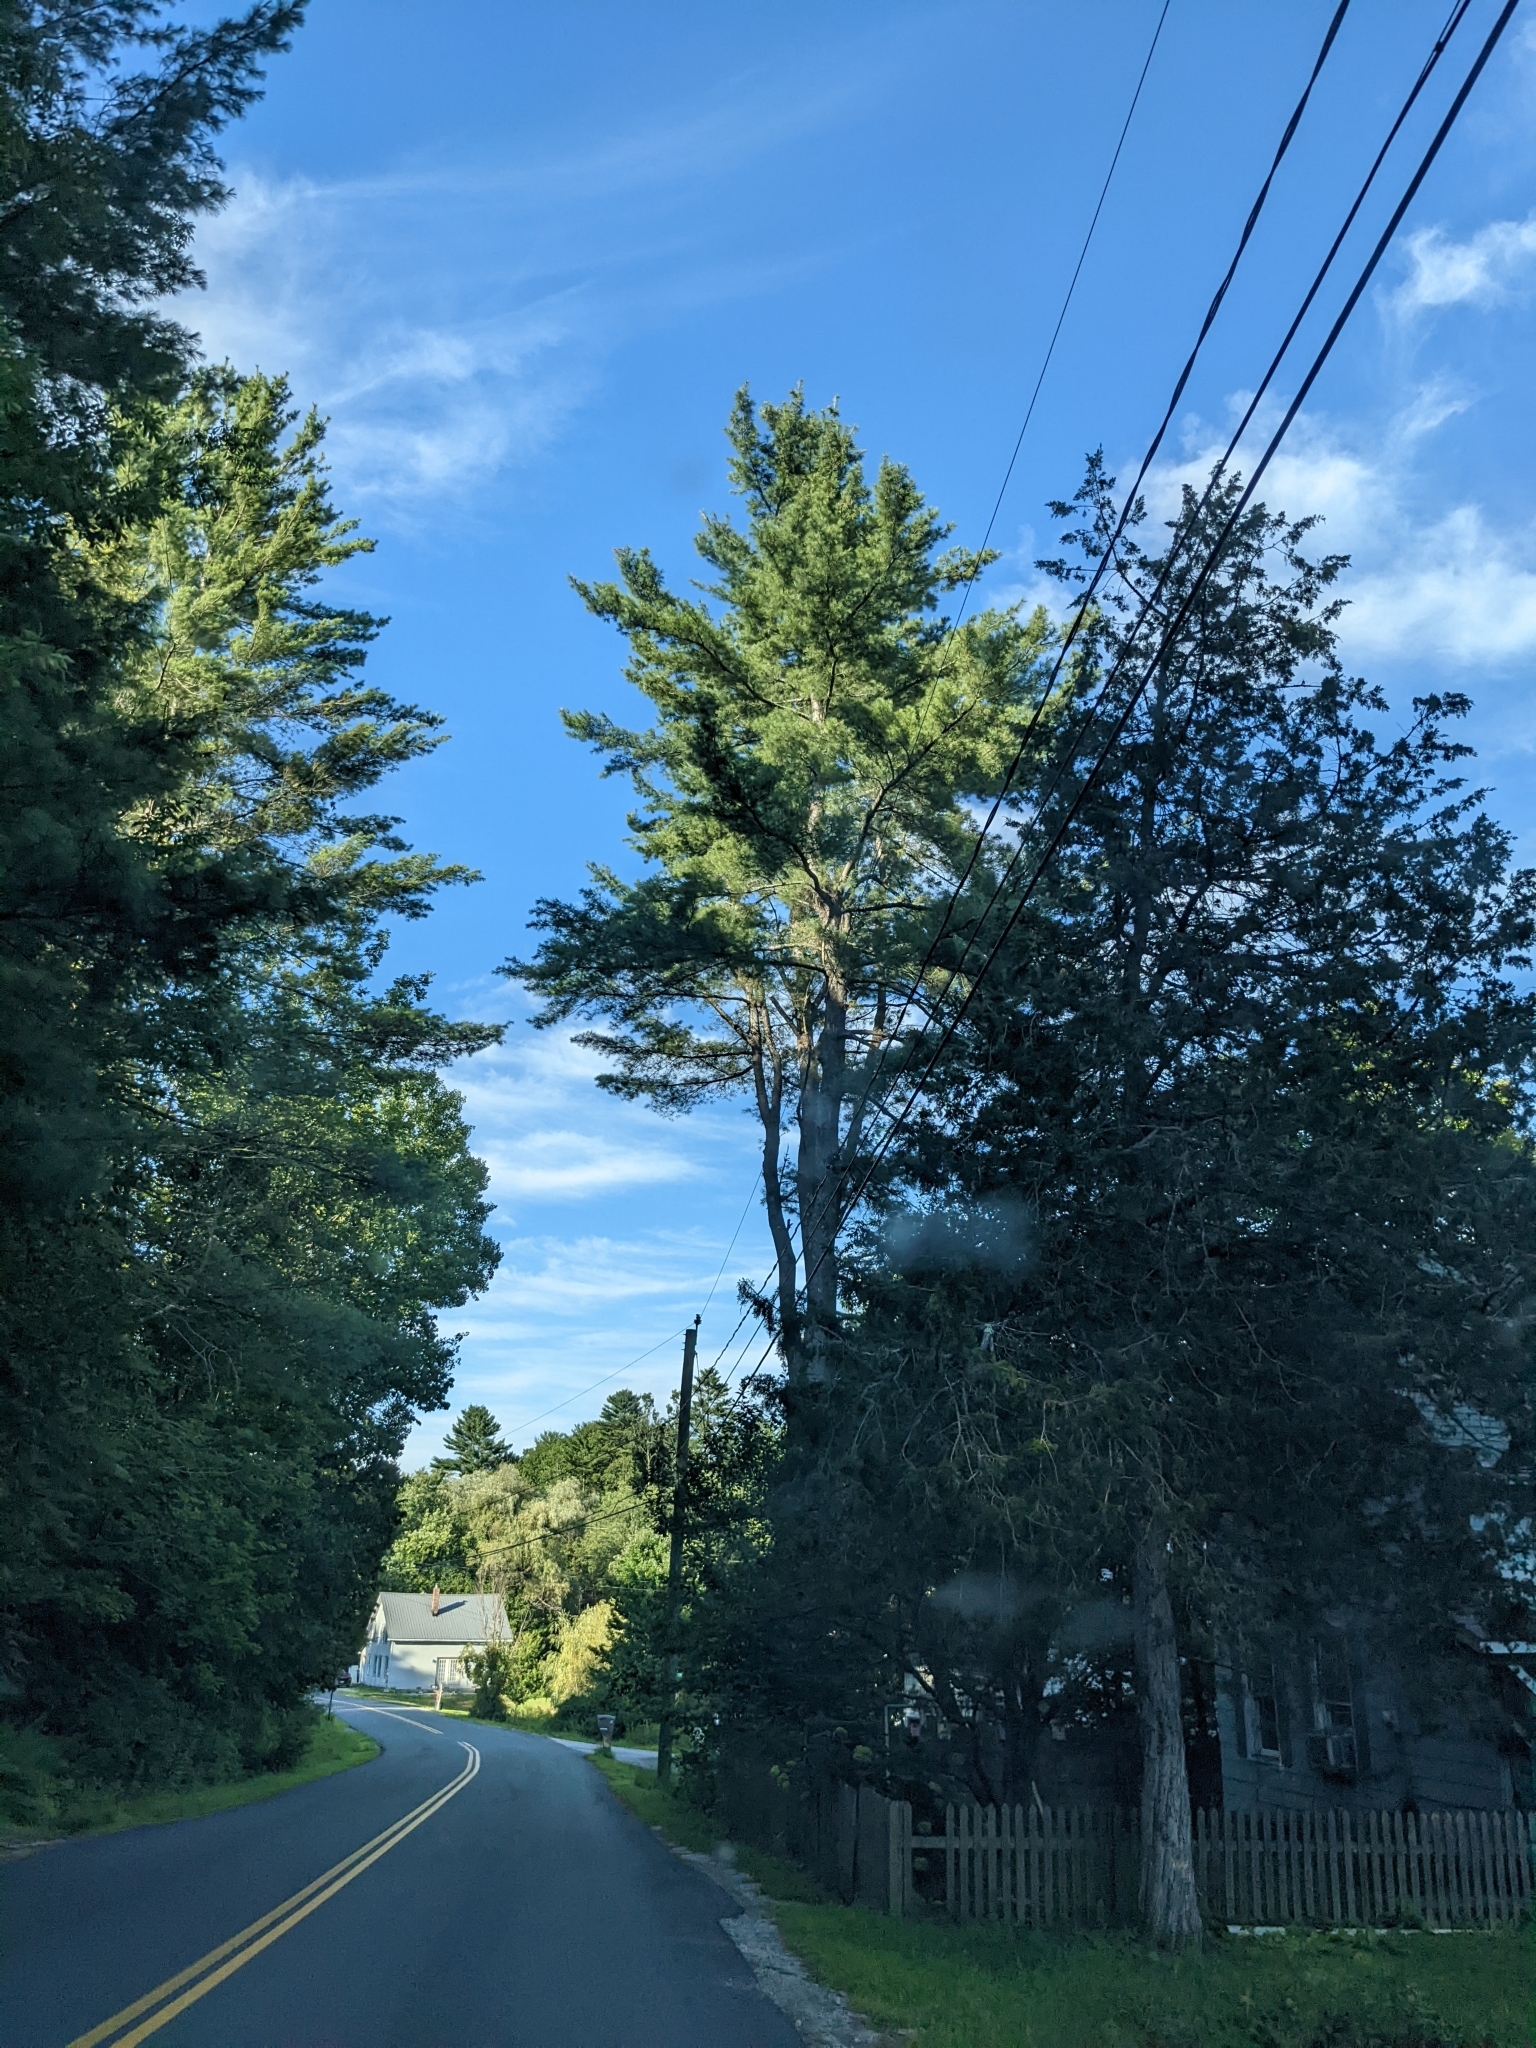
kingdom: Plantae
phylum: Tracheophyta
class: Pinopsida
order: Pinales
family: Pinaceae
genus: Pinus
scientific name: Pinus strobus
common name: Weymouth pine
